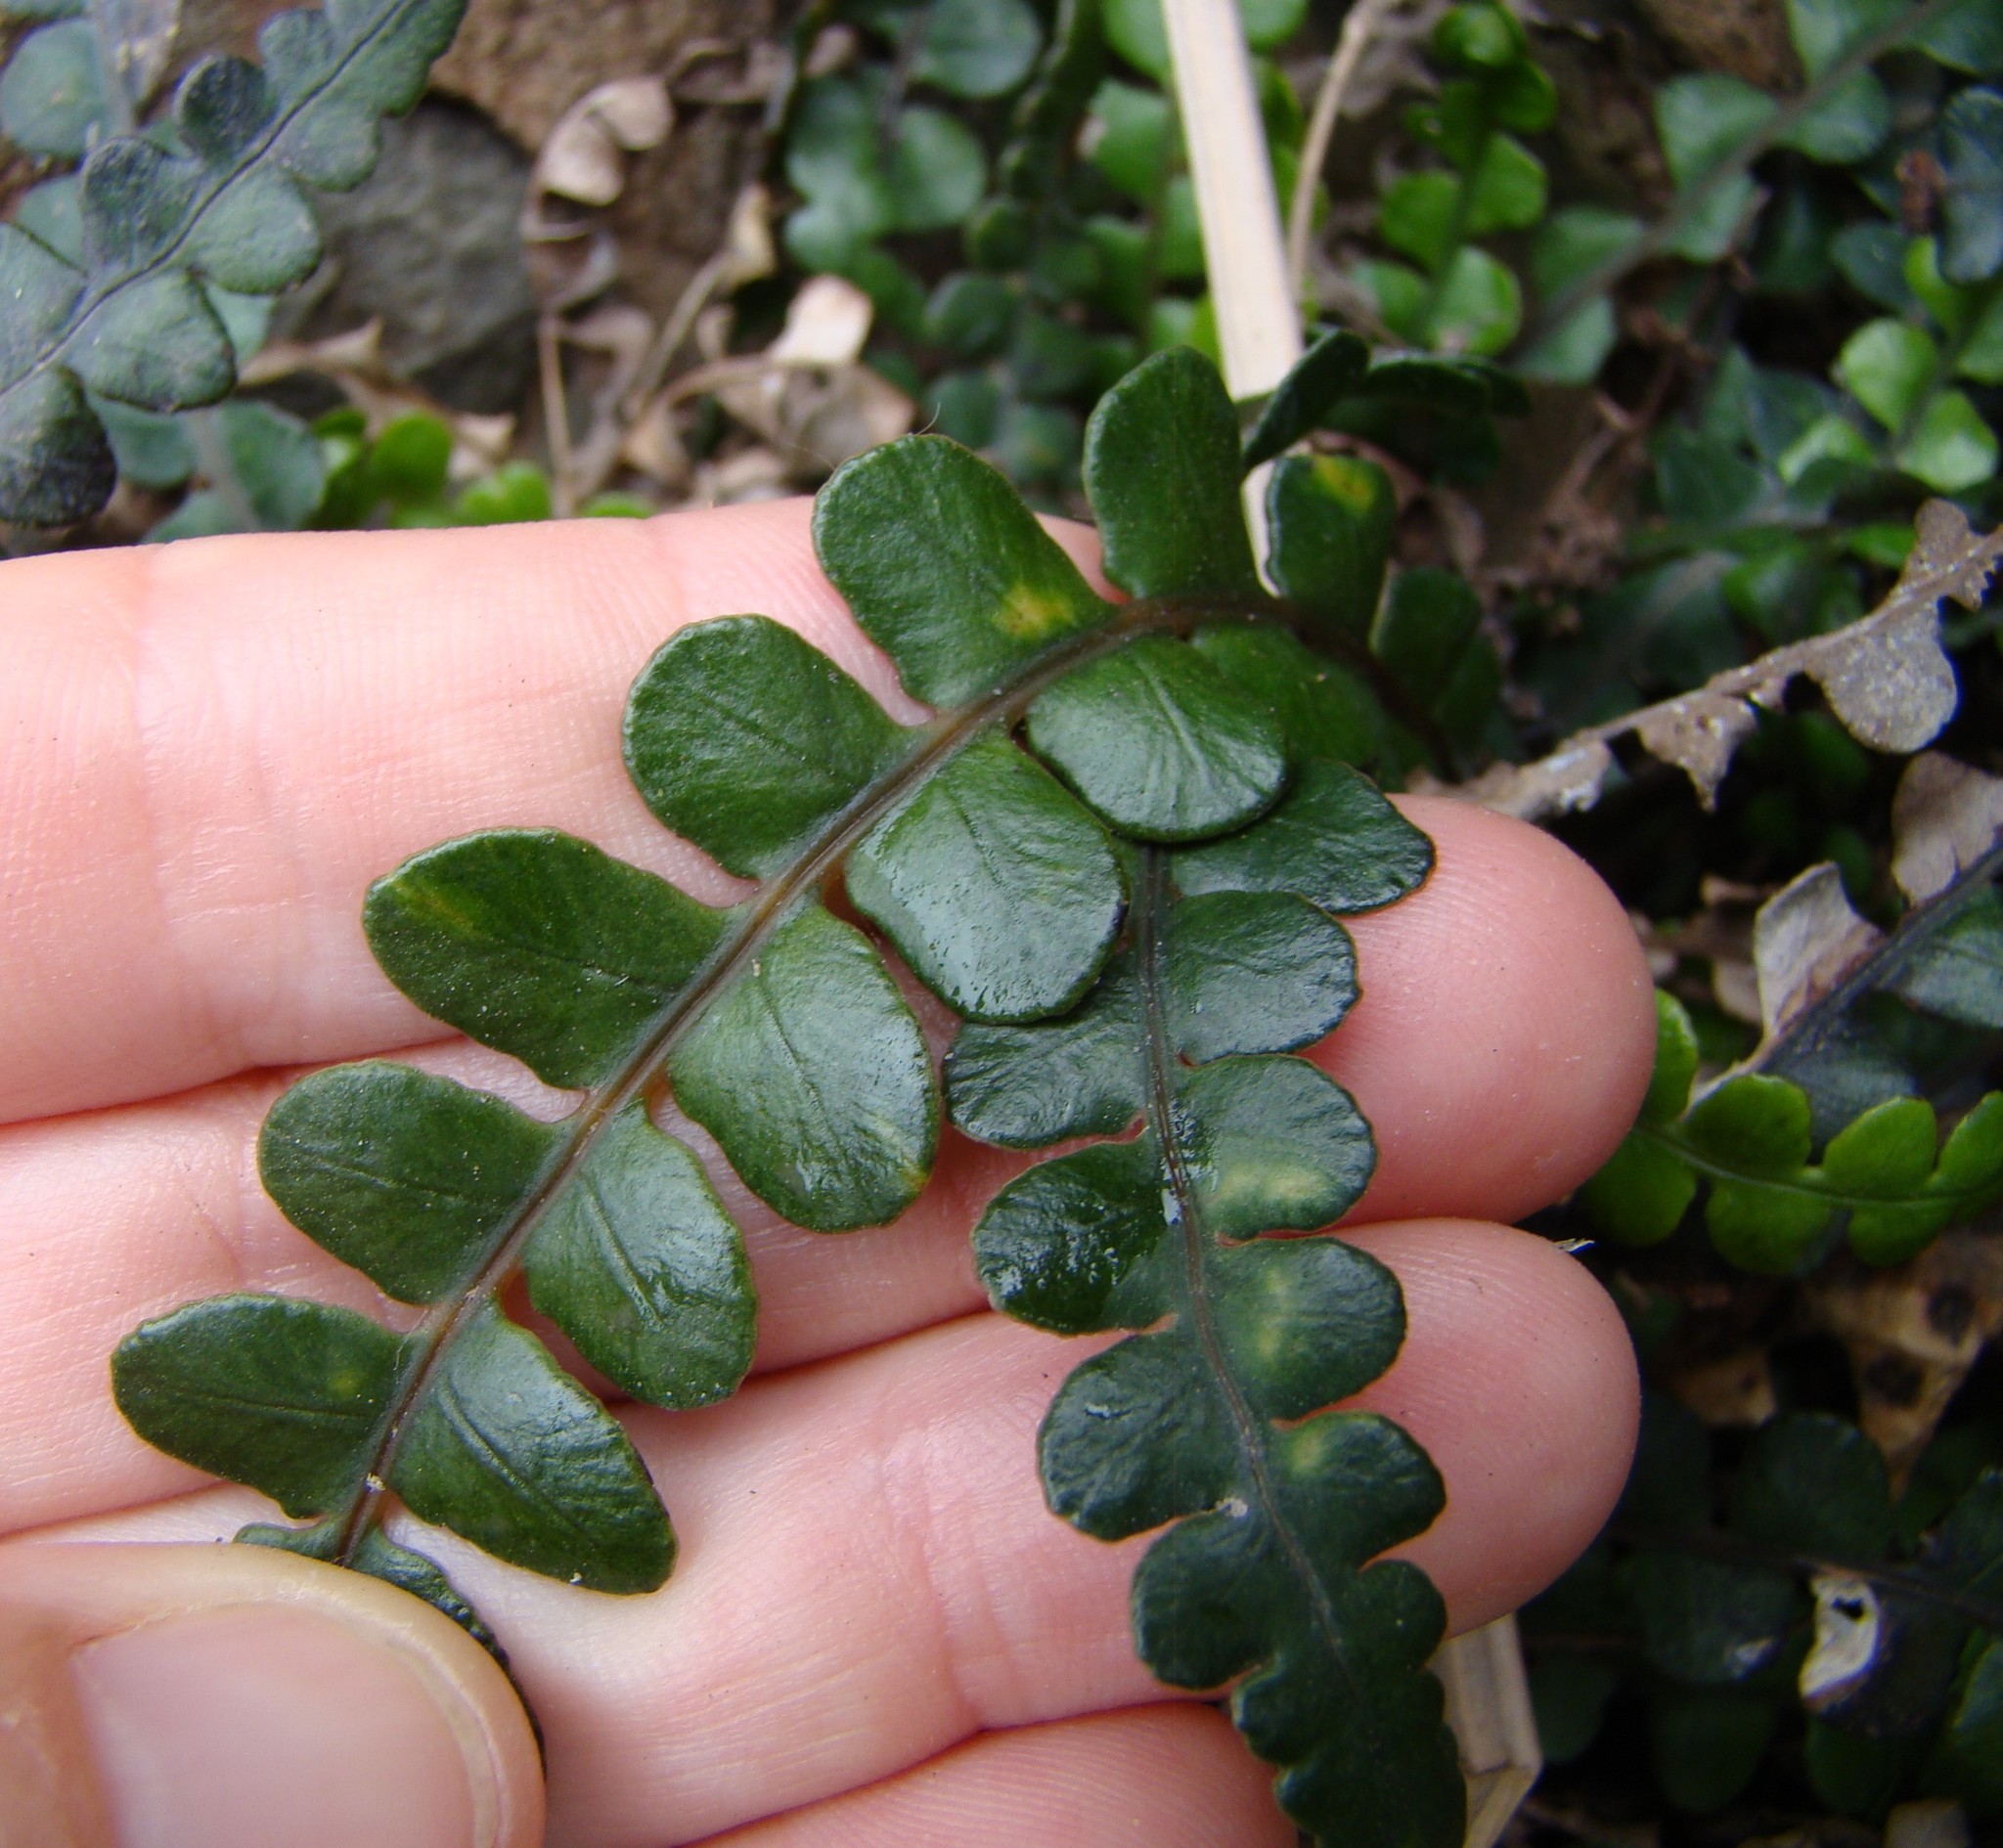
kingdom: Plantae
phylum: Tracheophyta
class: Polypodiopsida
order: Polypodiales
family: Blechnaceae
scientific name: Blechnaceae
